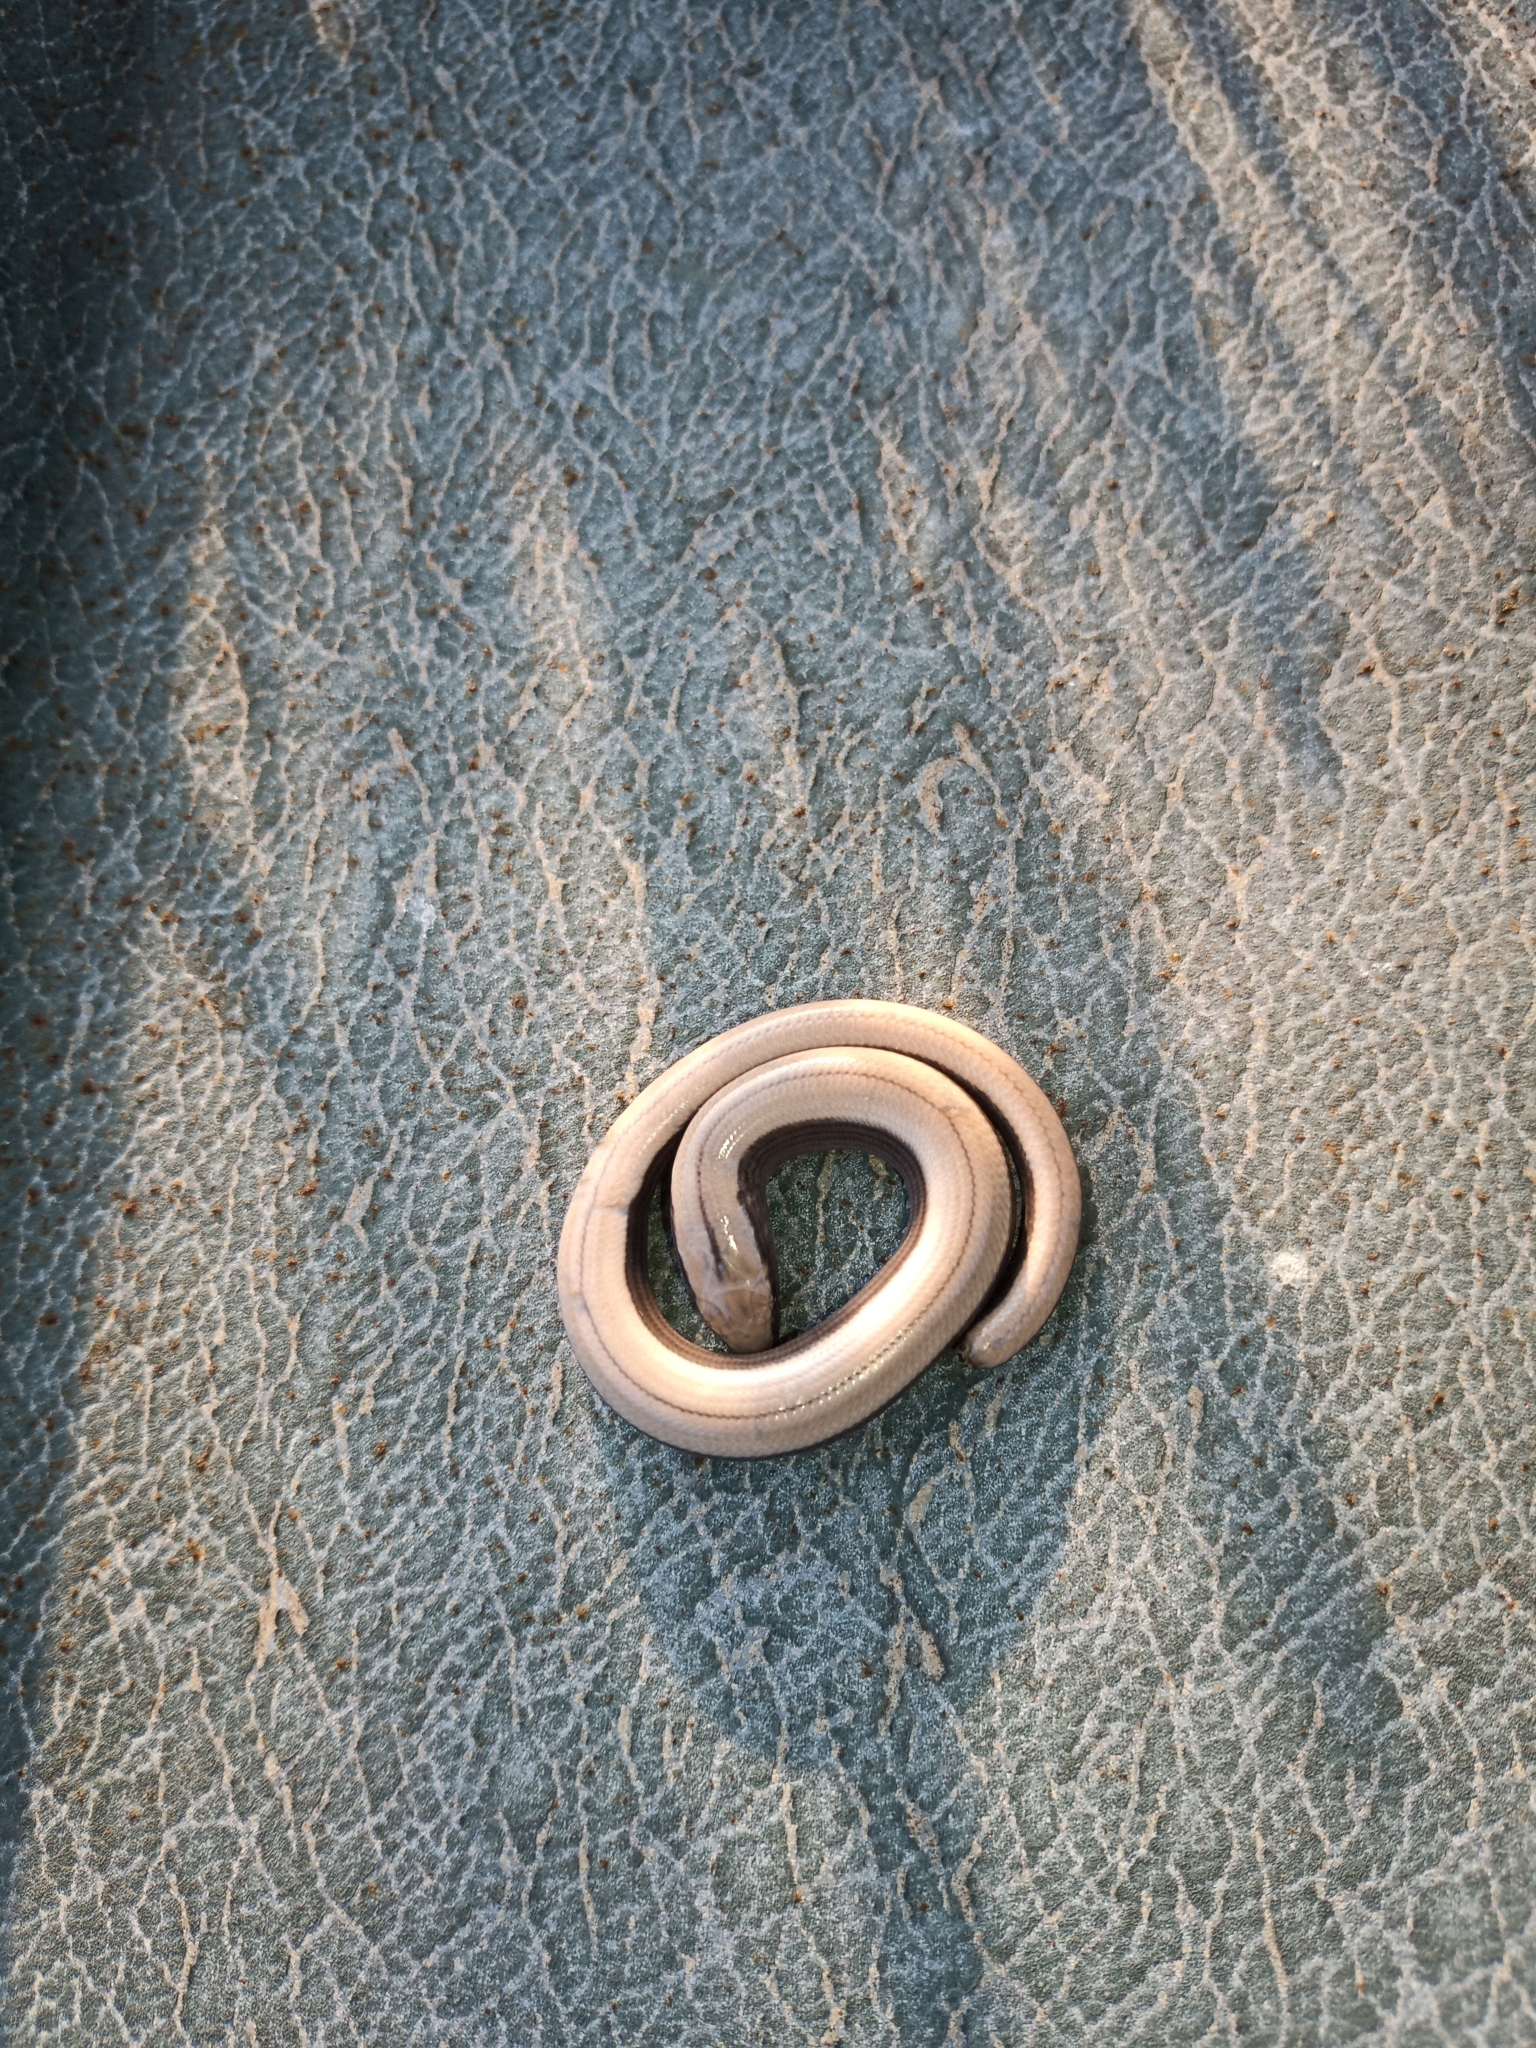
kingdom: Animalia
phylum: Chordata
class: Squamata
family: Anguidae
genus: Anguis
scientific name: Anguis fragilis
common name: Slow worm
